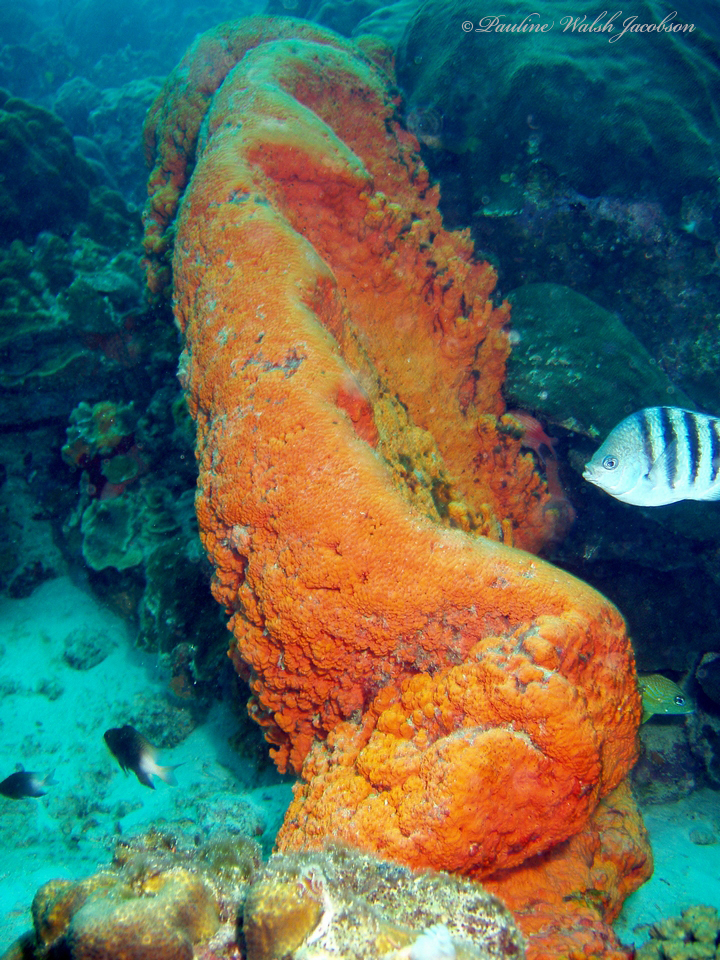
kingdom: Animalia
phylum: Chordata
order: Perciformes
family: Pomacentridae
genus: Abudefduf
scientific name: Abudefduf saxatilis
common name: Sergeant major
